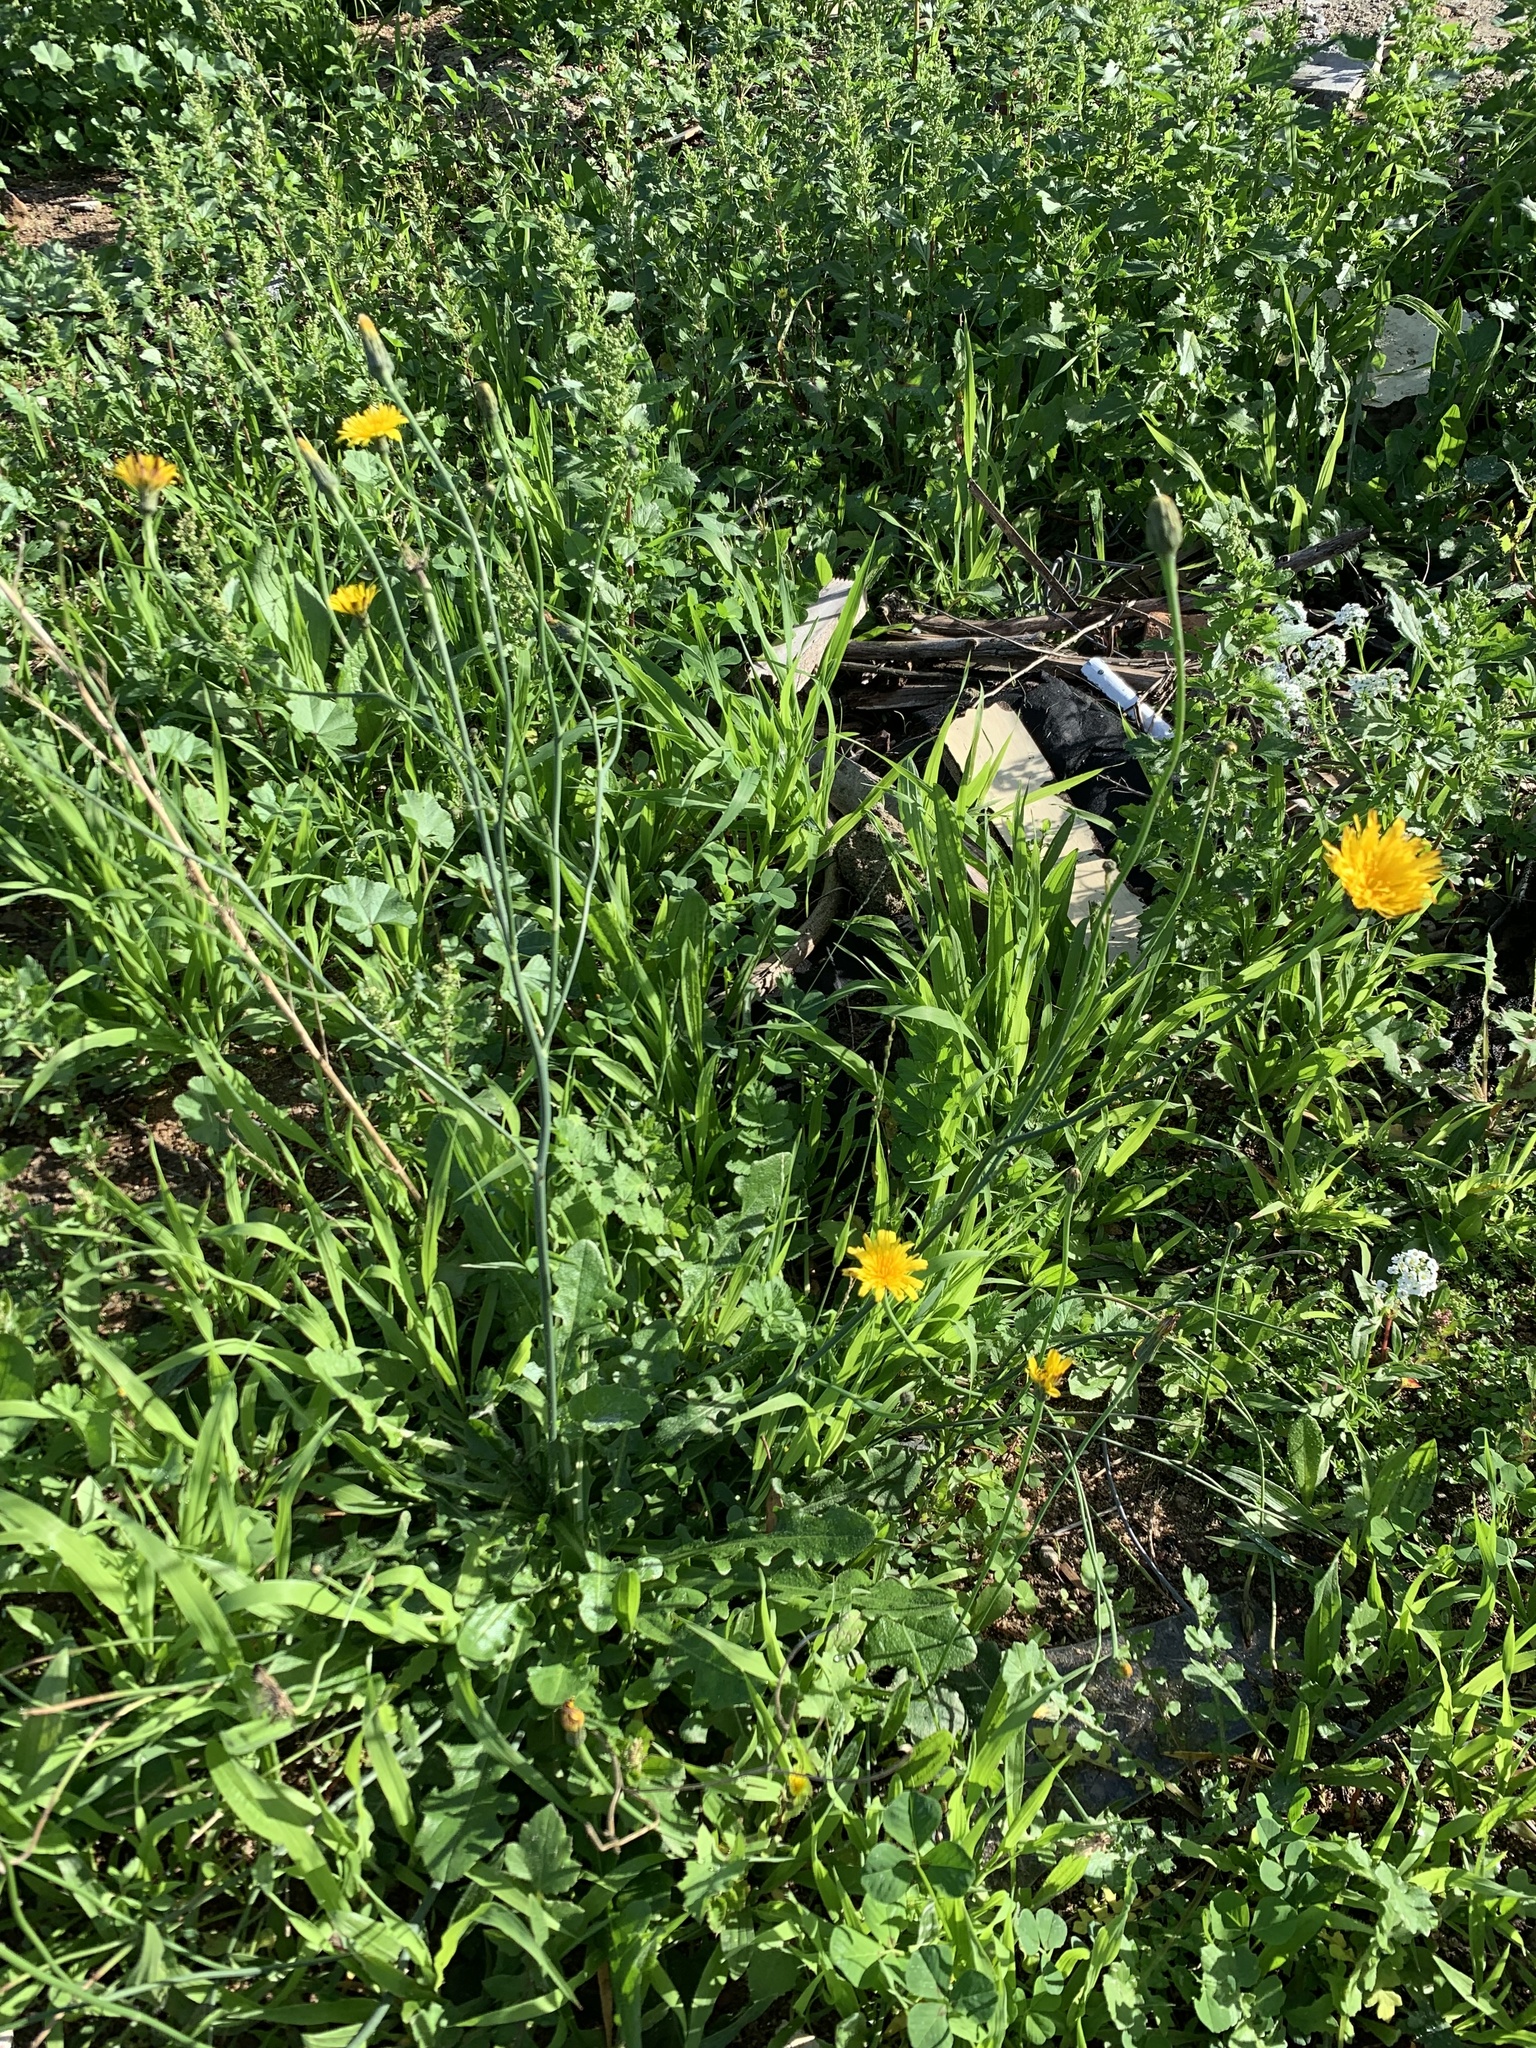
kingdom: Plantae
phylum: Tracheophyta
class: Magnoliopsida
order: Asterales
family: Asteraceae
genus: Hypochaeris
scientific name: Hypochaeris radicata
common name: Flatweed
